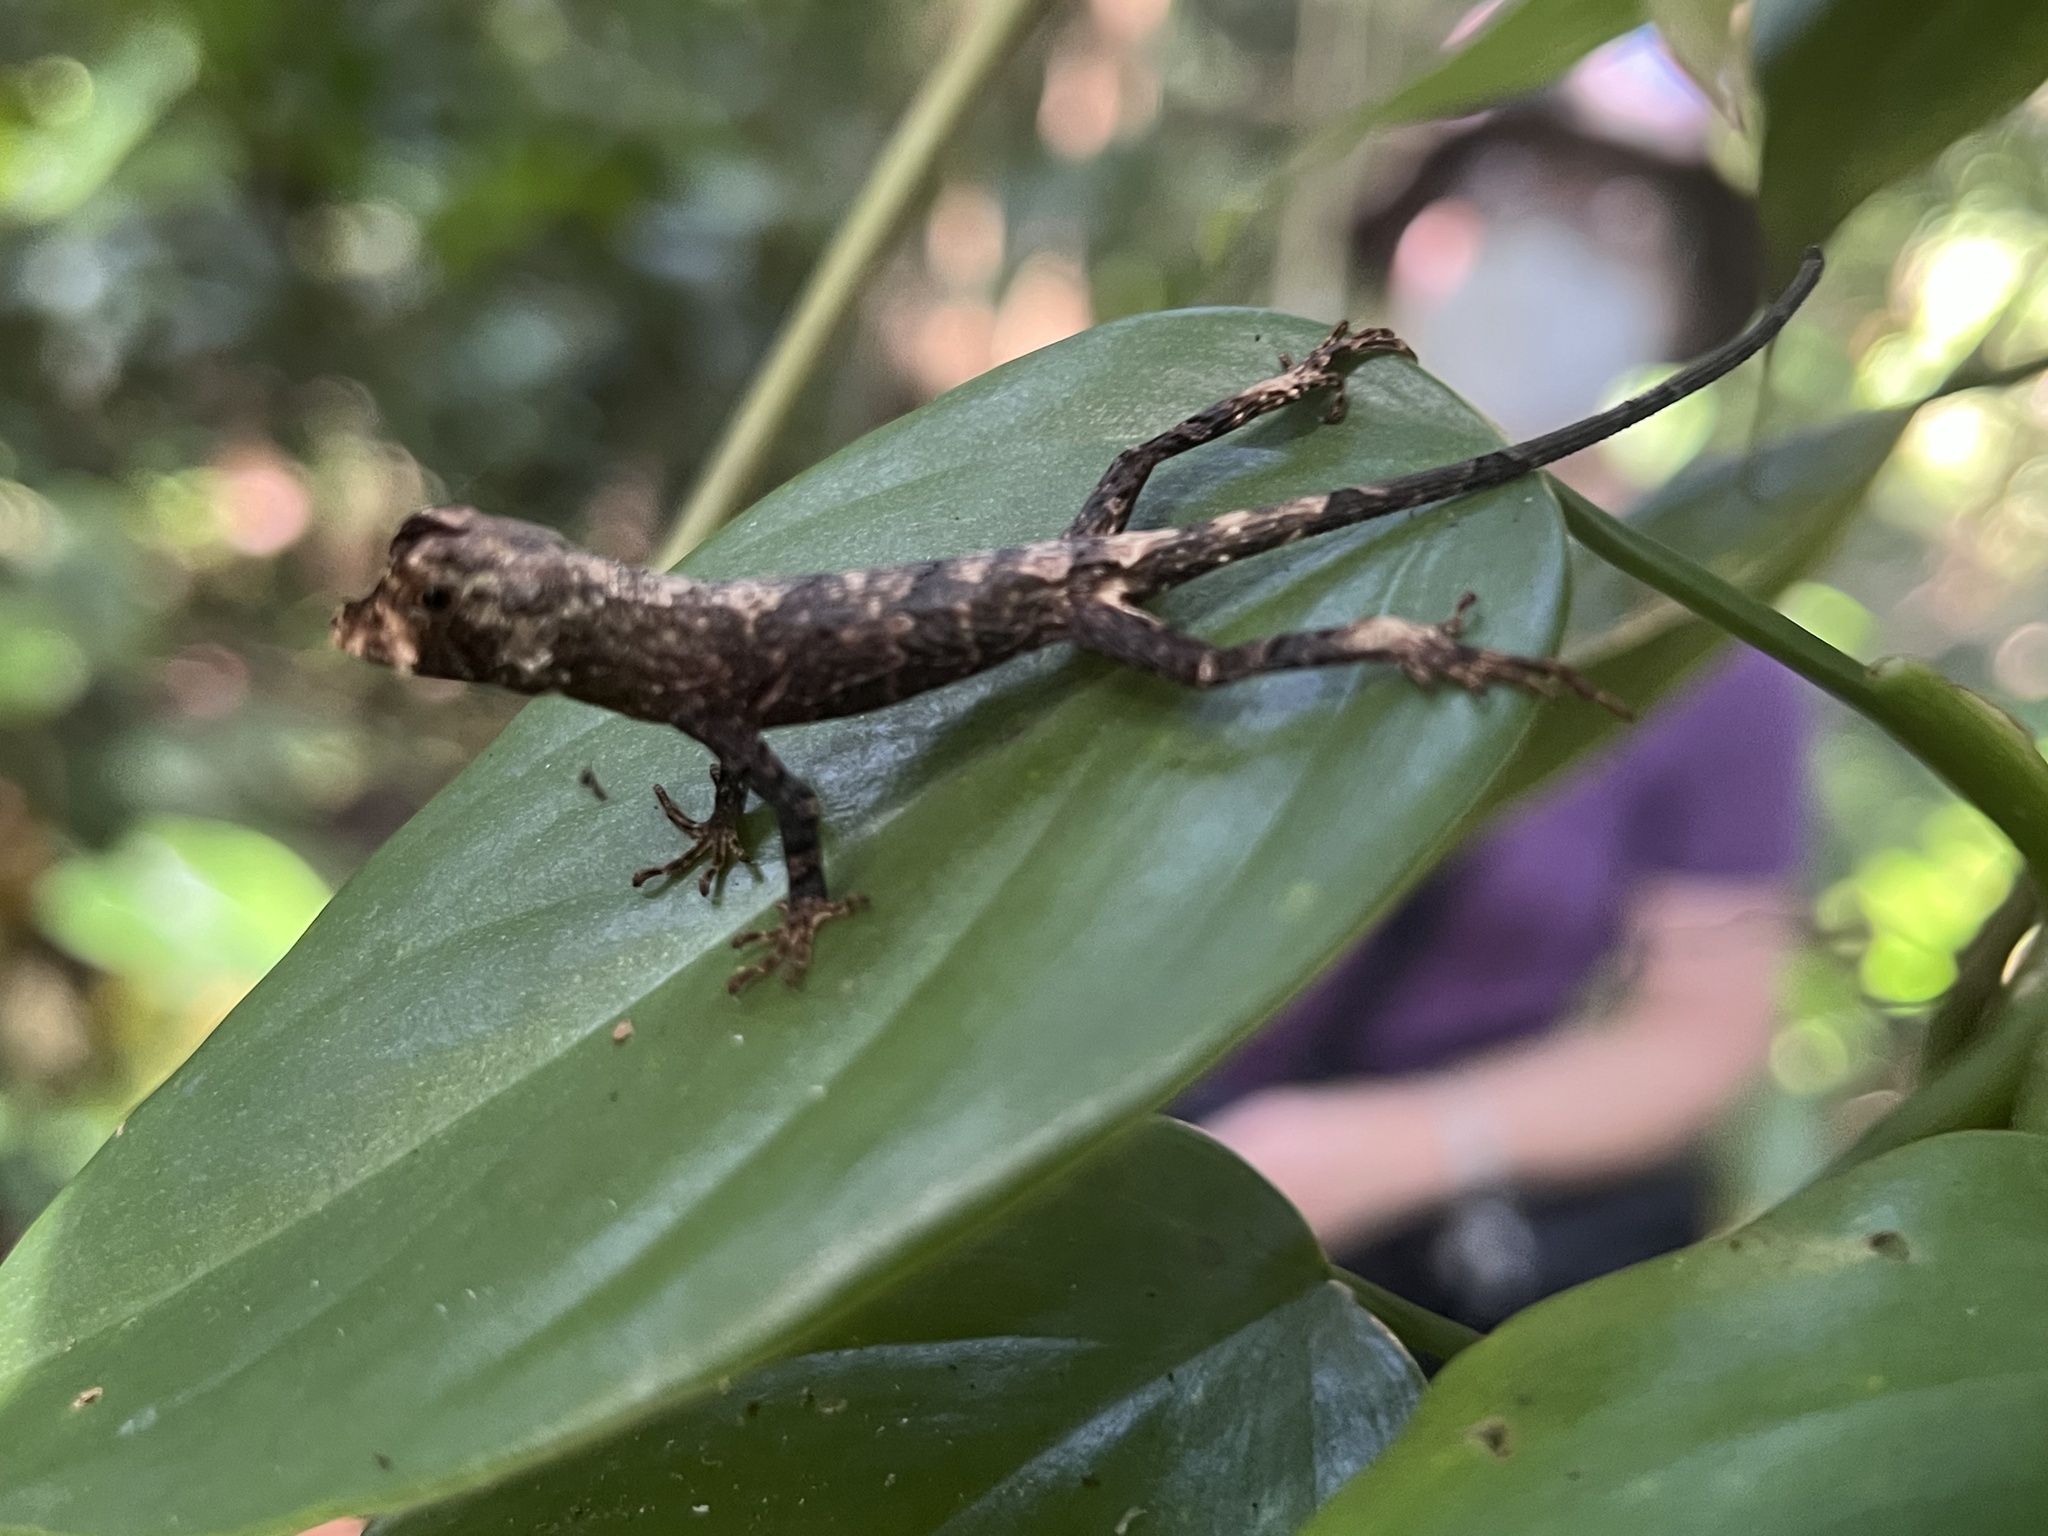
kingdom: Animalia
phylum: Chordata
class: Squamata
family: Dactyloidae
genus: Anolis
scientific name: Anolis capito
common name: Bighead anole
